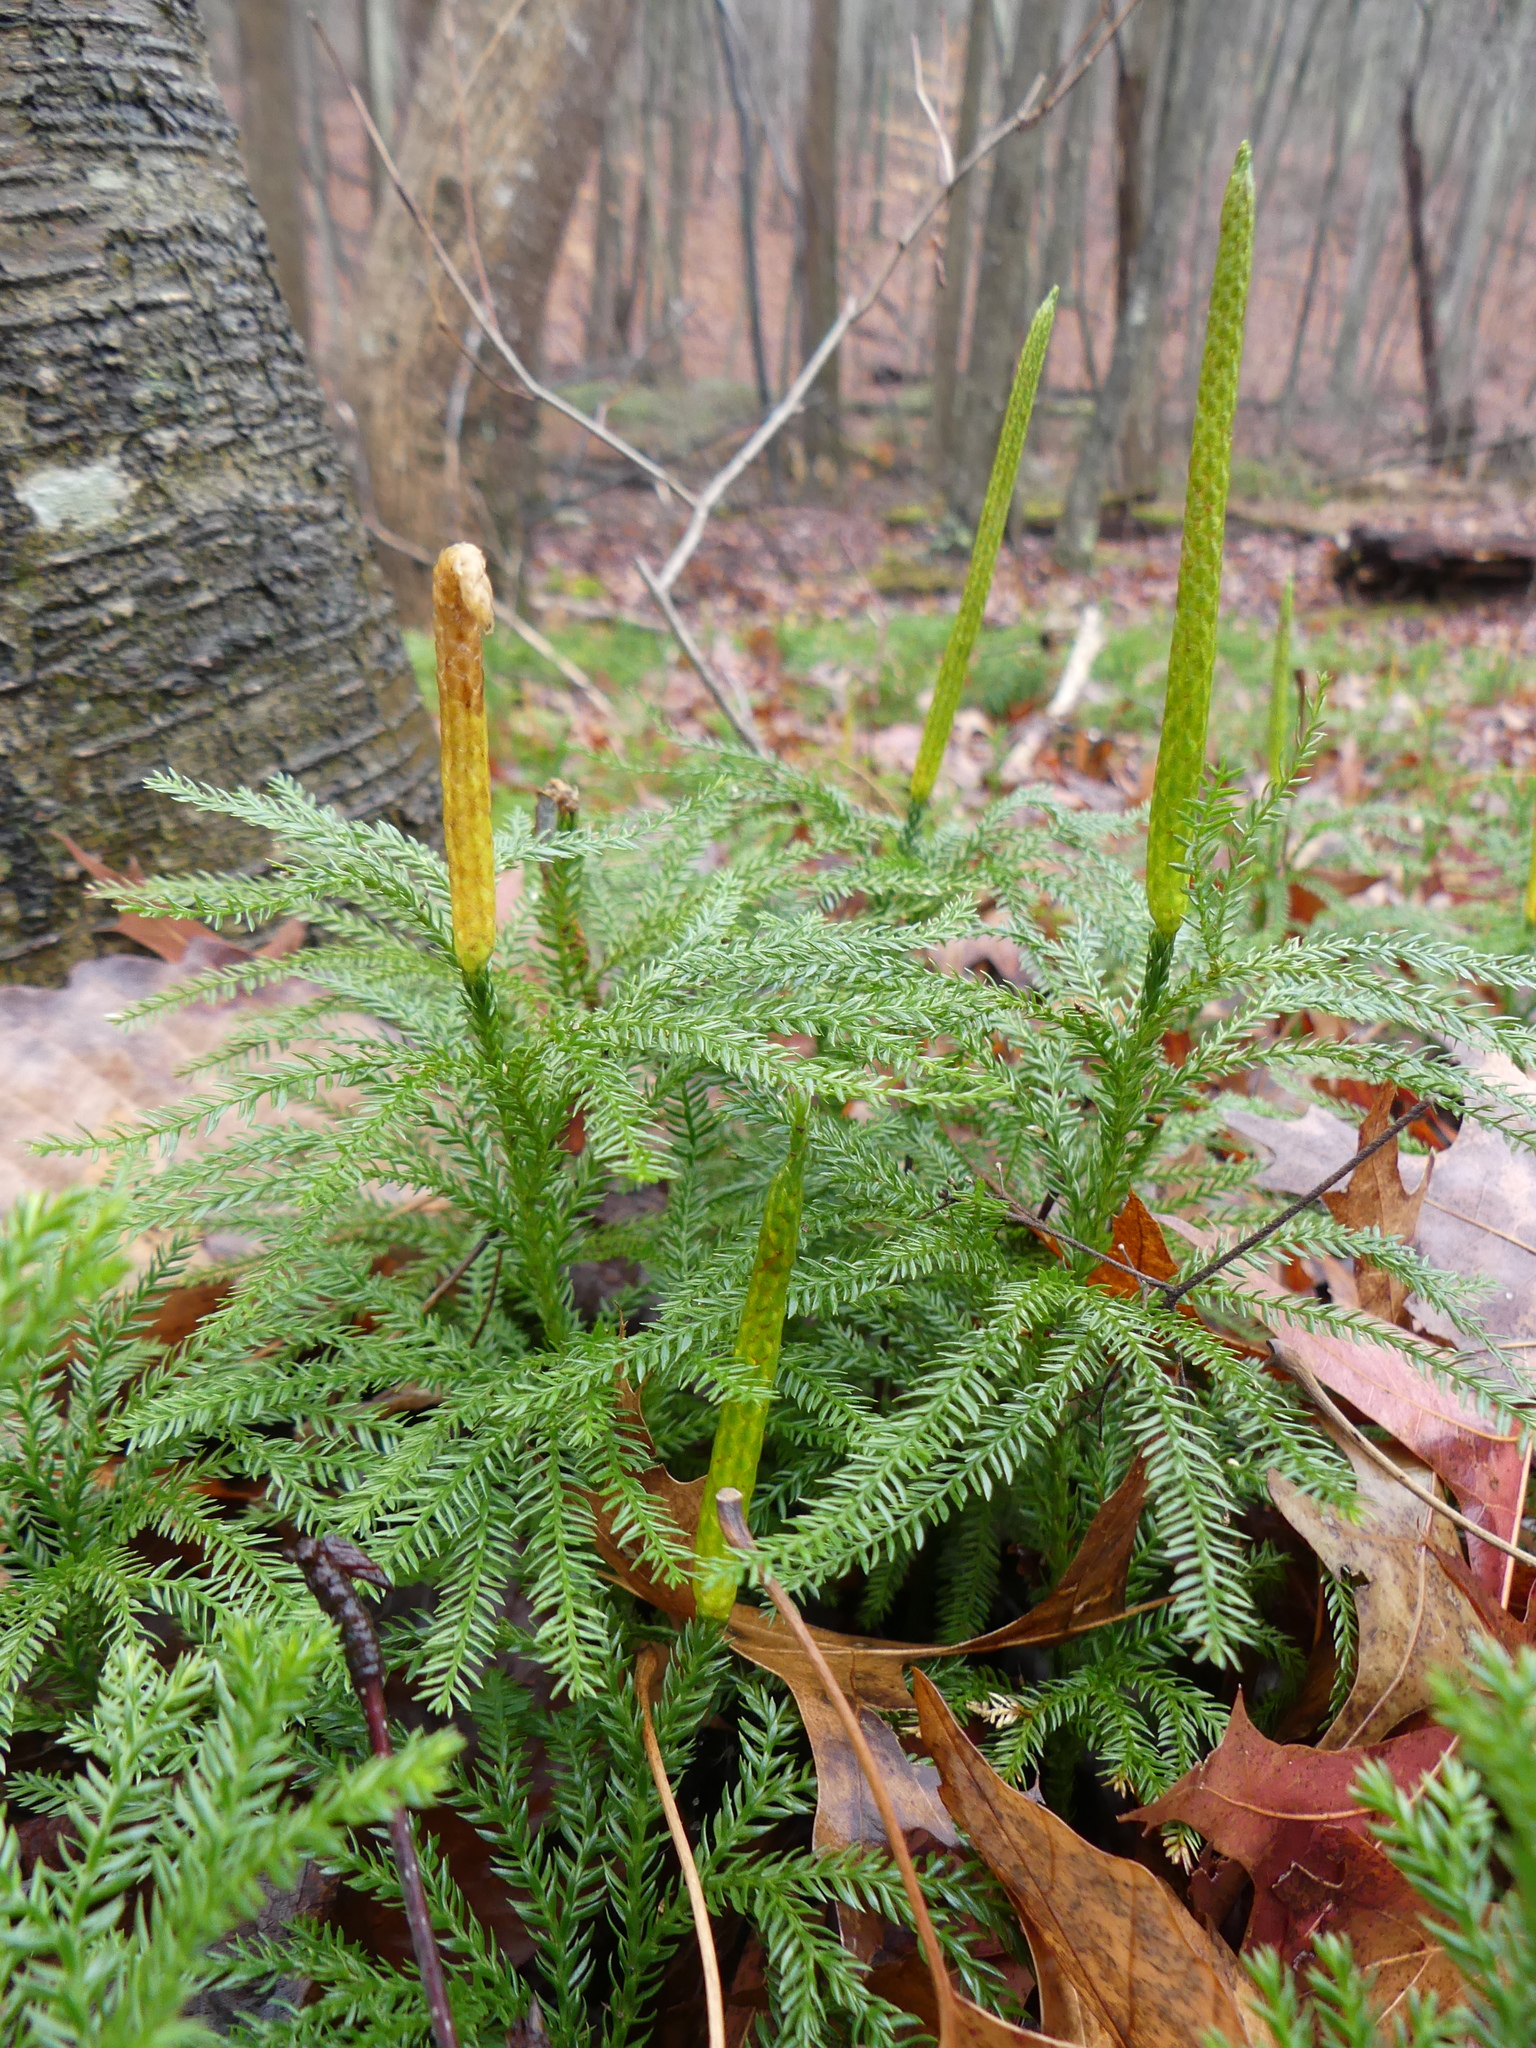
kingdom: Plantae
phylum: Tracheophyta
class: Lycopodiopsida
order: Lycopodiales
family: Lycopodiaceae
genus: Dendrolycopodium
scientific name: Dendrolycopodium obscurum
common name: Common ground-pine
